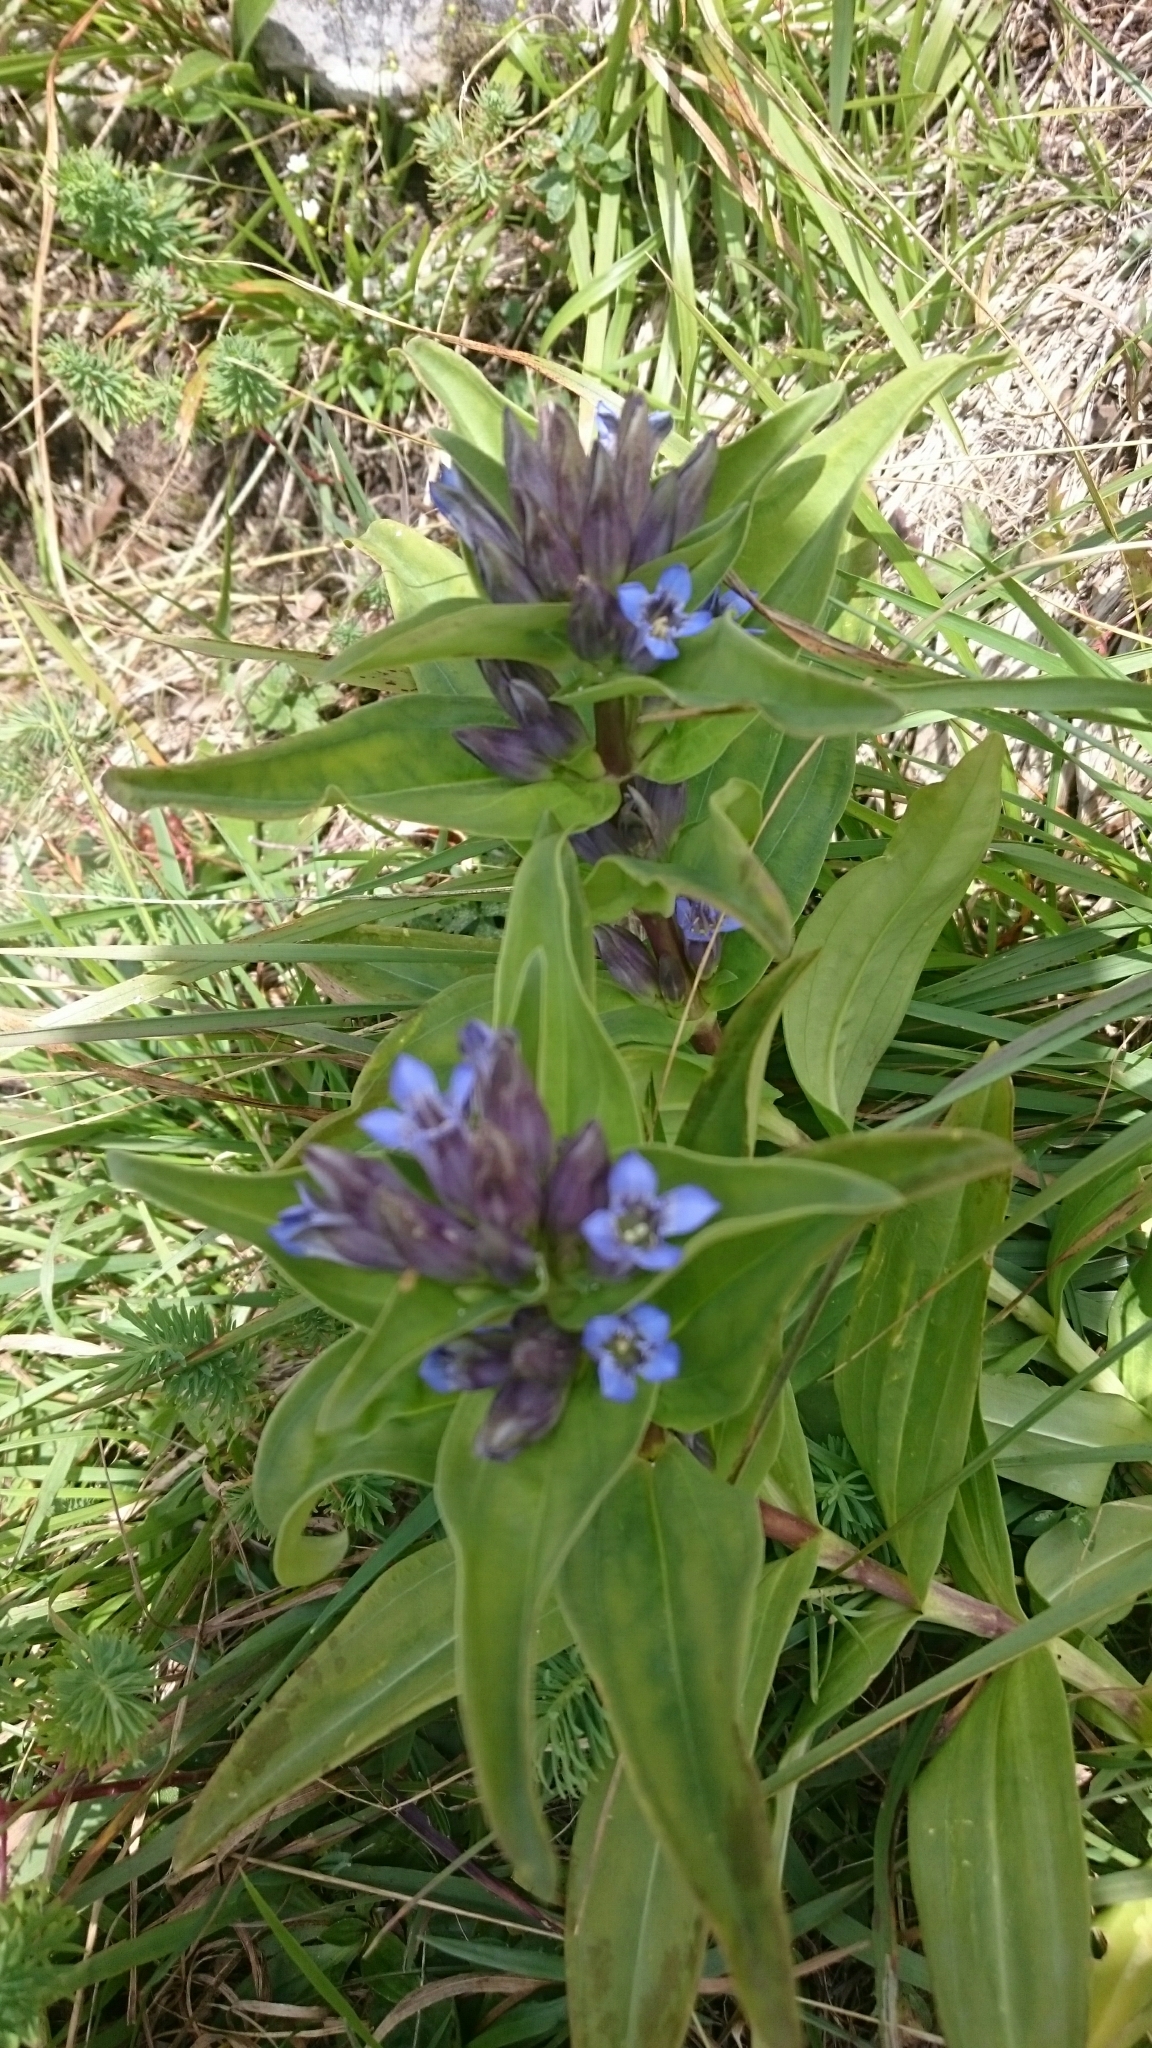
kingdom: Plantae
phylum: Tracheophyta
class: Magnoliopsida
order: Gentianales
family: Gentianaceae
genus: Gentiana
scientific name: Gentiana cruciata
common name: Cross gentian
